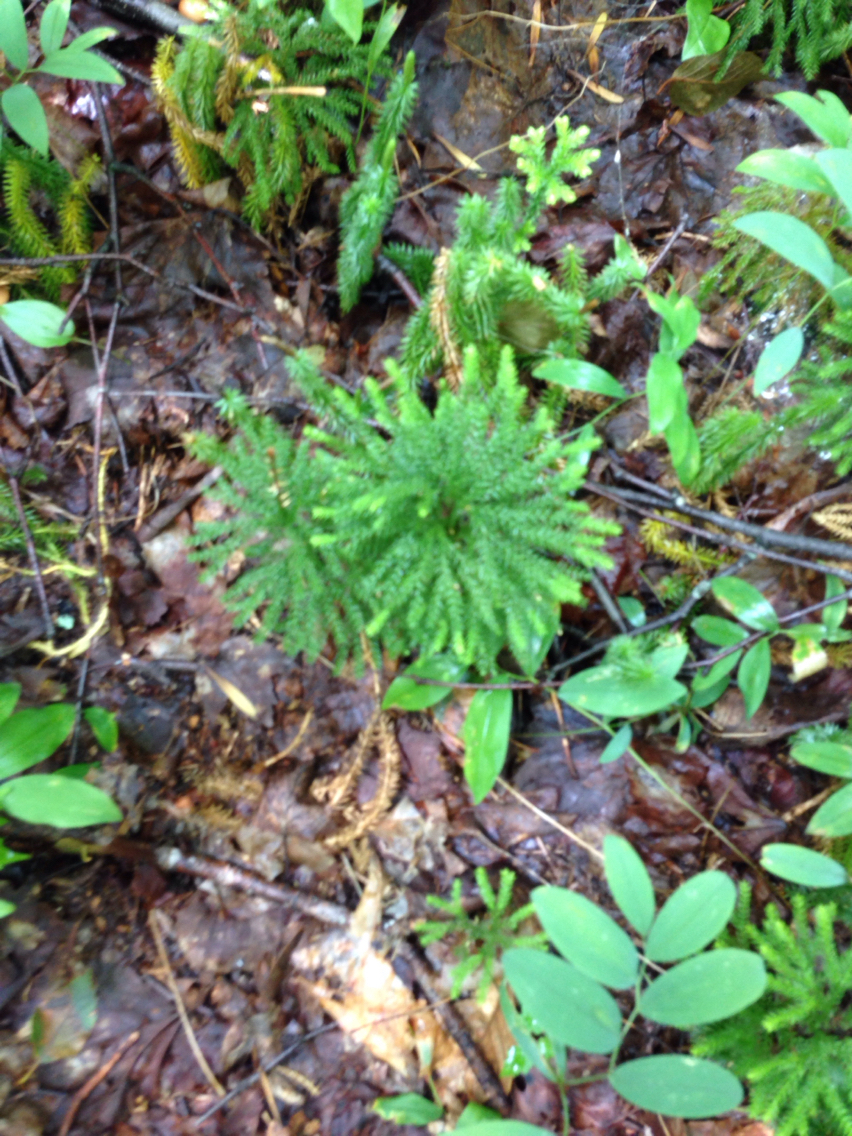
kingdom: Plantae
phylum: Tracheophyta
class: Lycopodiopsida
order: Lycopodiales
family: Lycopodiaceae
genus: Dendrolycopodium
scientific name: Dendrolycopodium obscurum
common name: Common ground-pine
